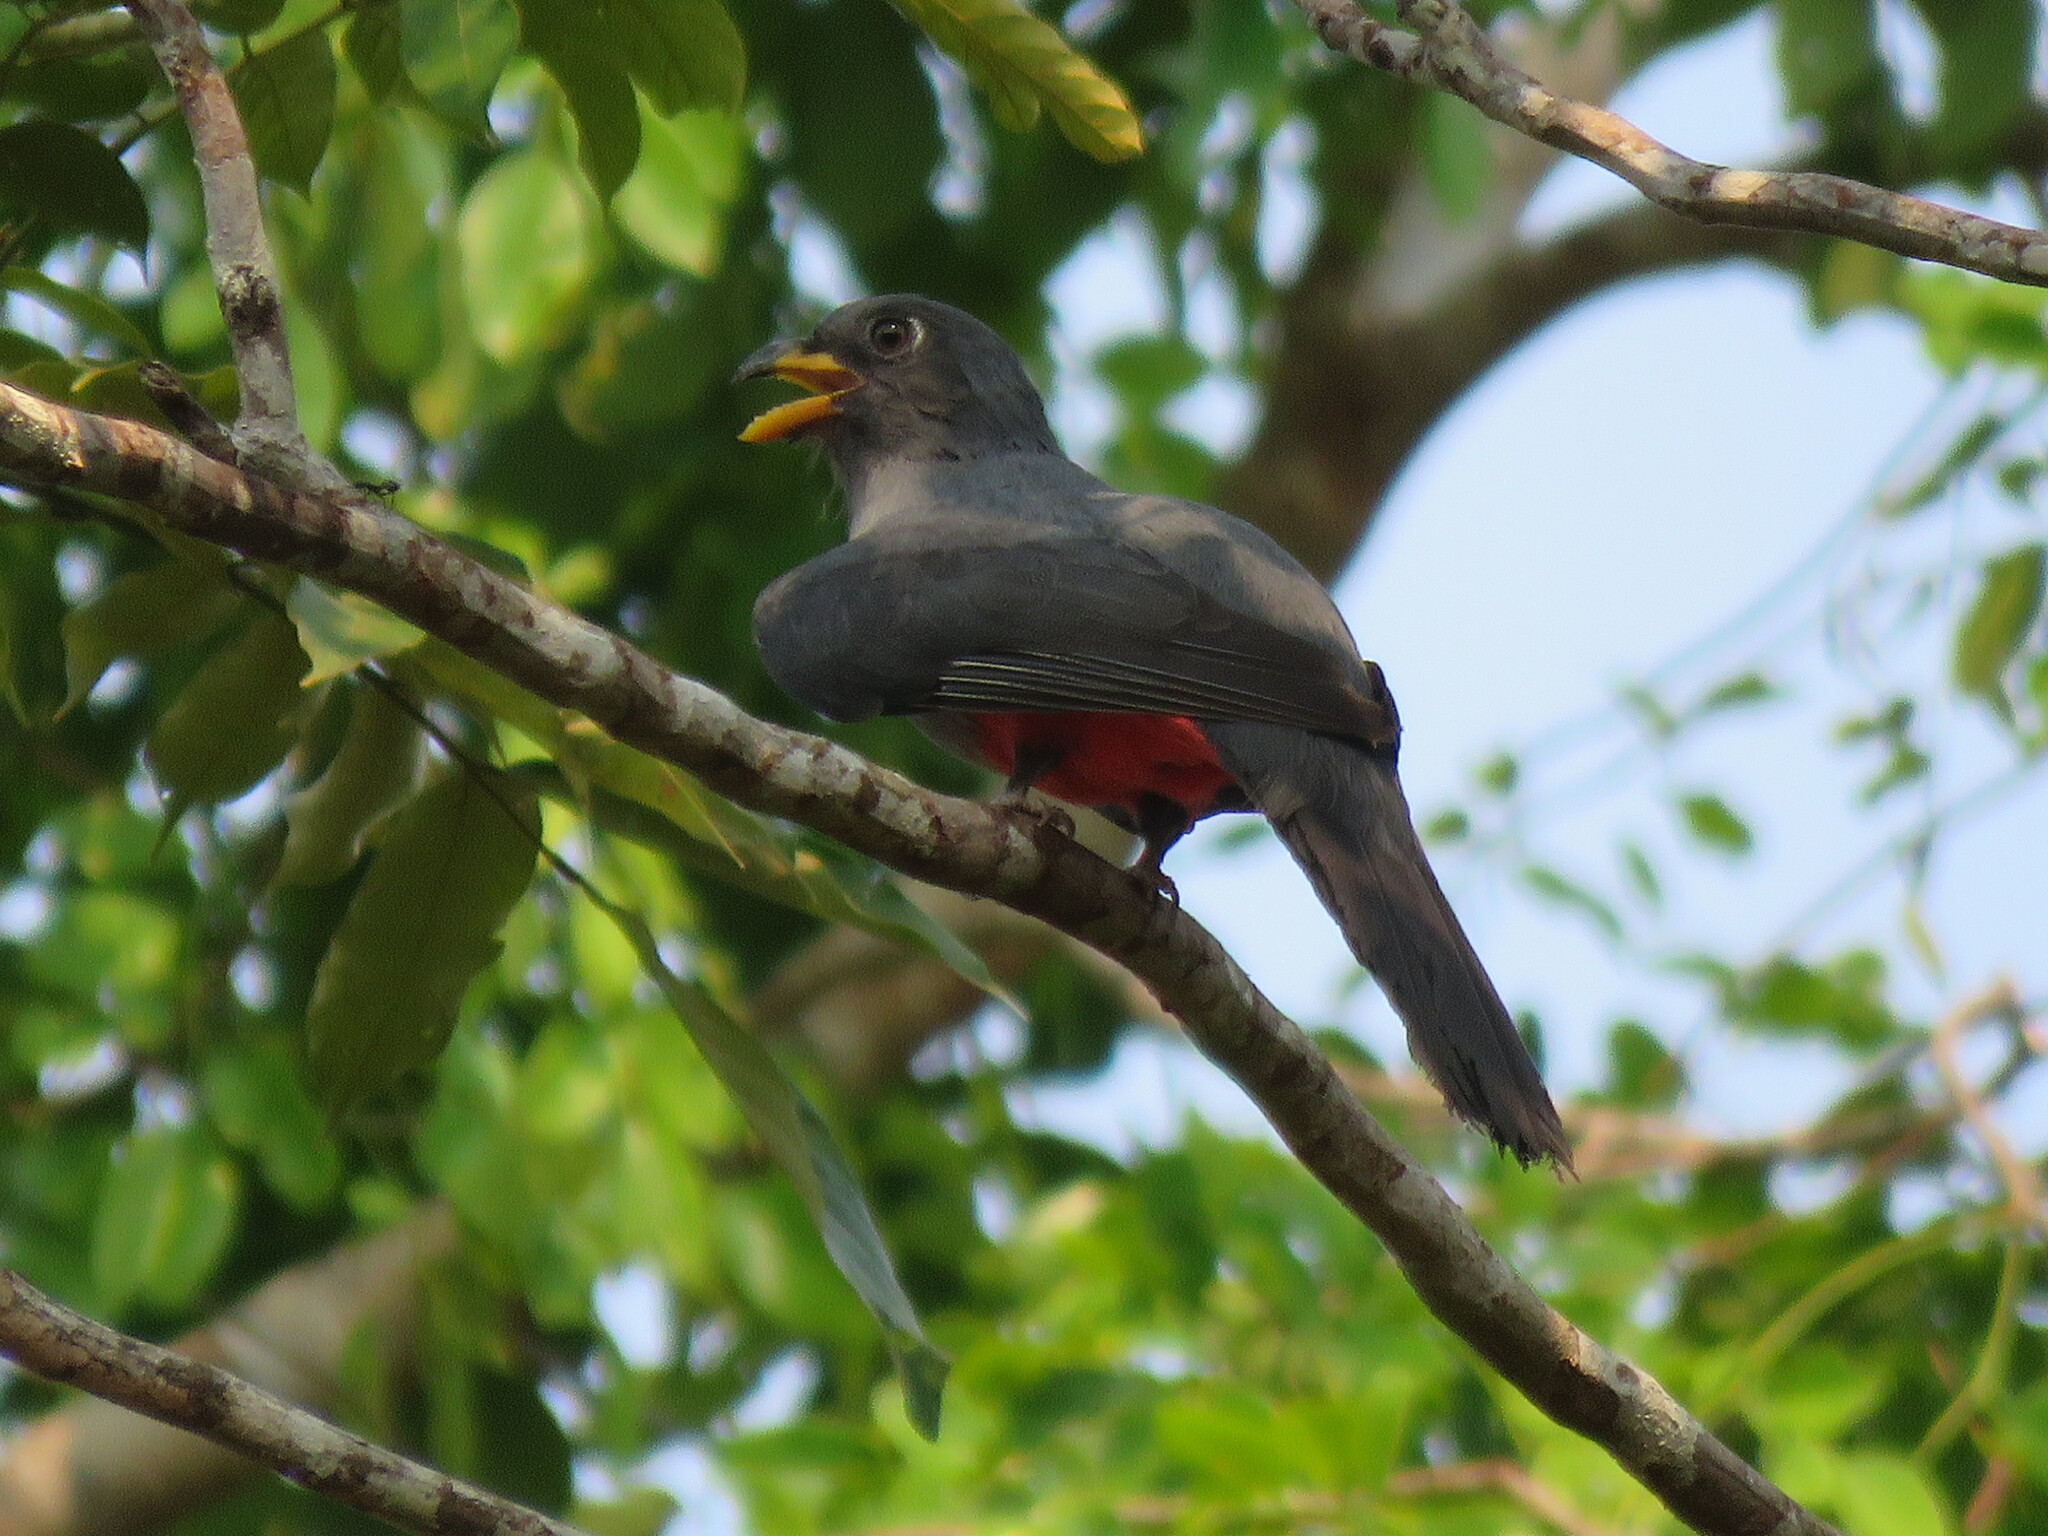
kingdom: Animalia
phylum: Chordata
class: Aves
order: Trogoniformes
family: Trogonidae
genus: Trogon
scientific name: Trogon melanurus
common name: Black-tailed trogon
